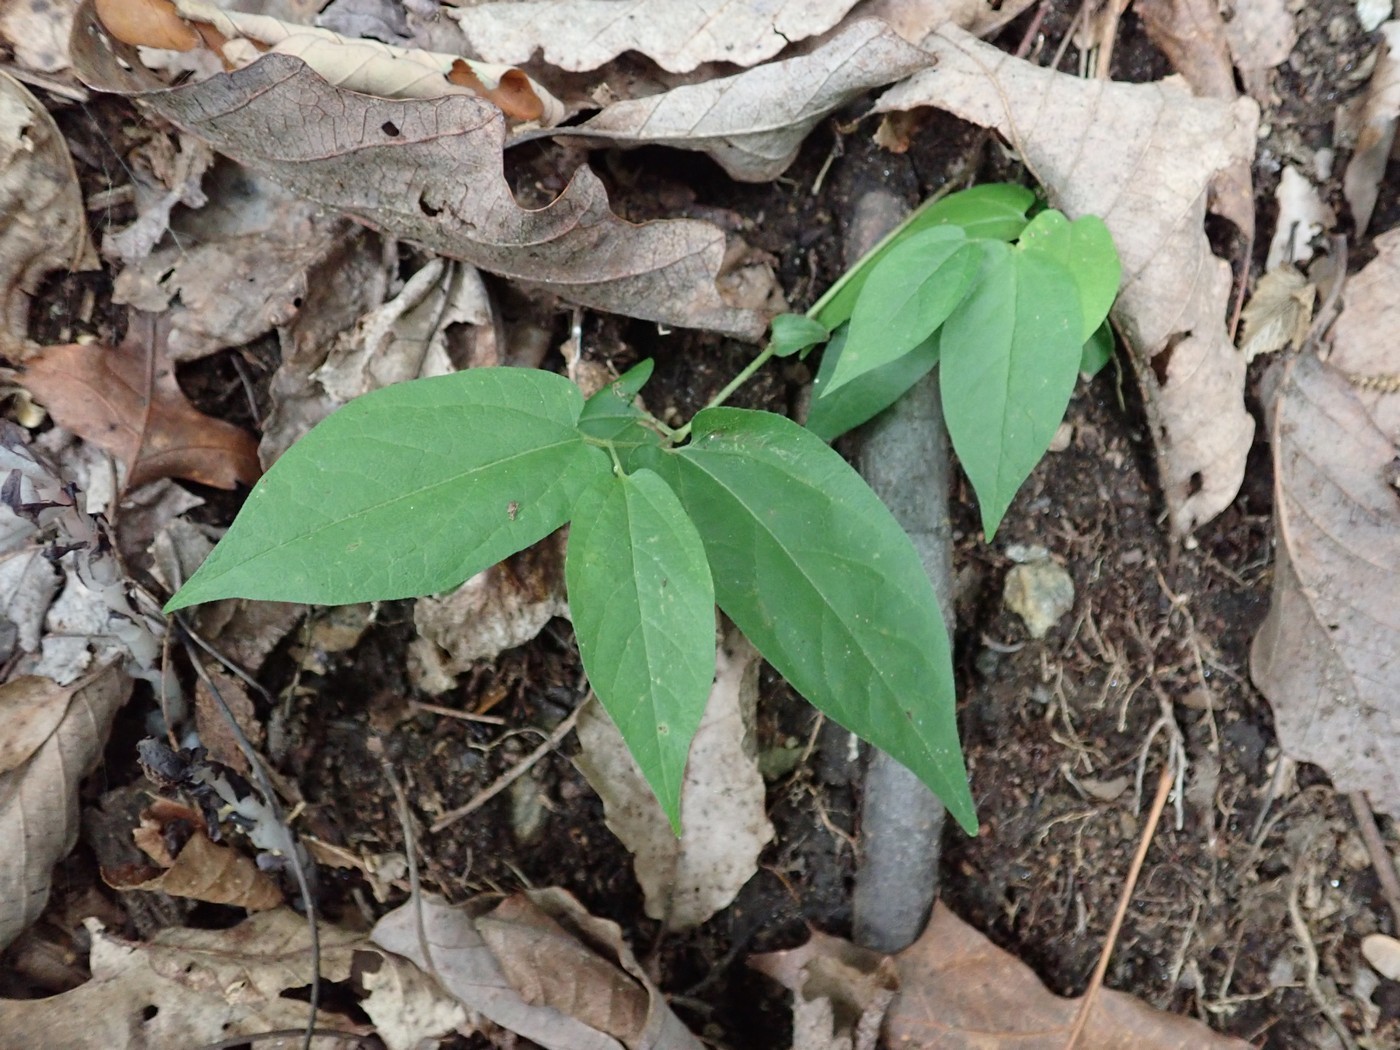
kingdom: Plantae
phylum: Tracheophyta
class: Magnoliopsida
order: Piperales
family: Aristolochiaceae
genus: Endodeca
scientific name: Endodeca serpentaria
